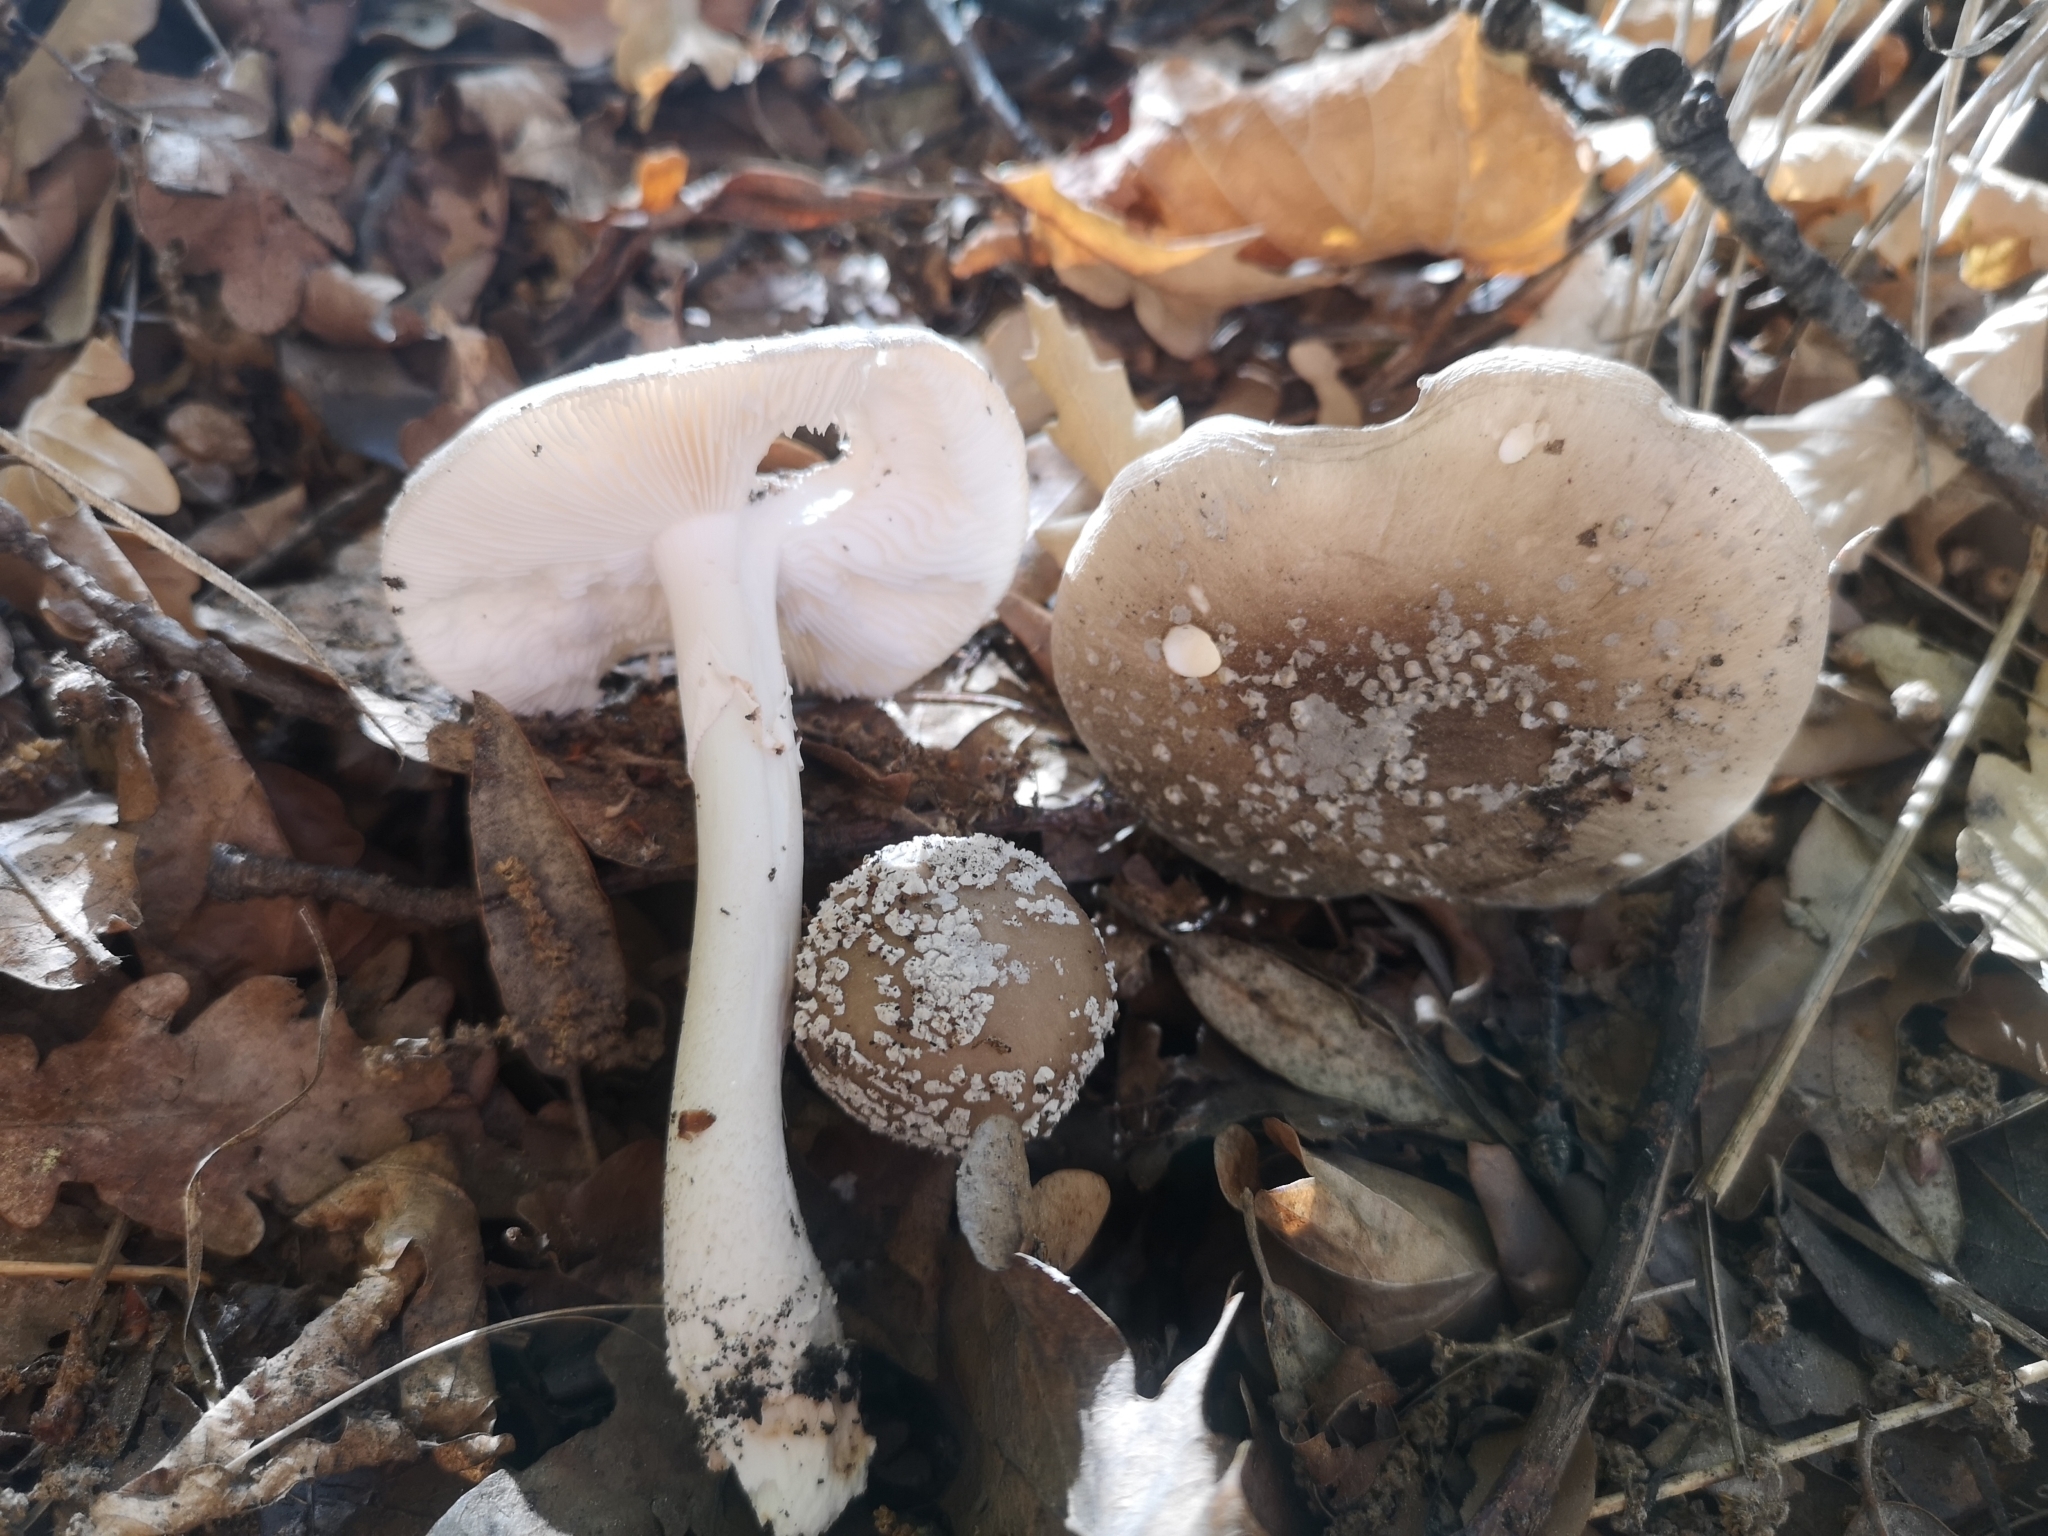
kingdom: Fungi
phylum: Basidiomycota
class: Agaricomycetes
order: Agaricales
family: Amanitaceae
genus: Amanita
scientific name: Amanita excelsa
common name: European false blusher
